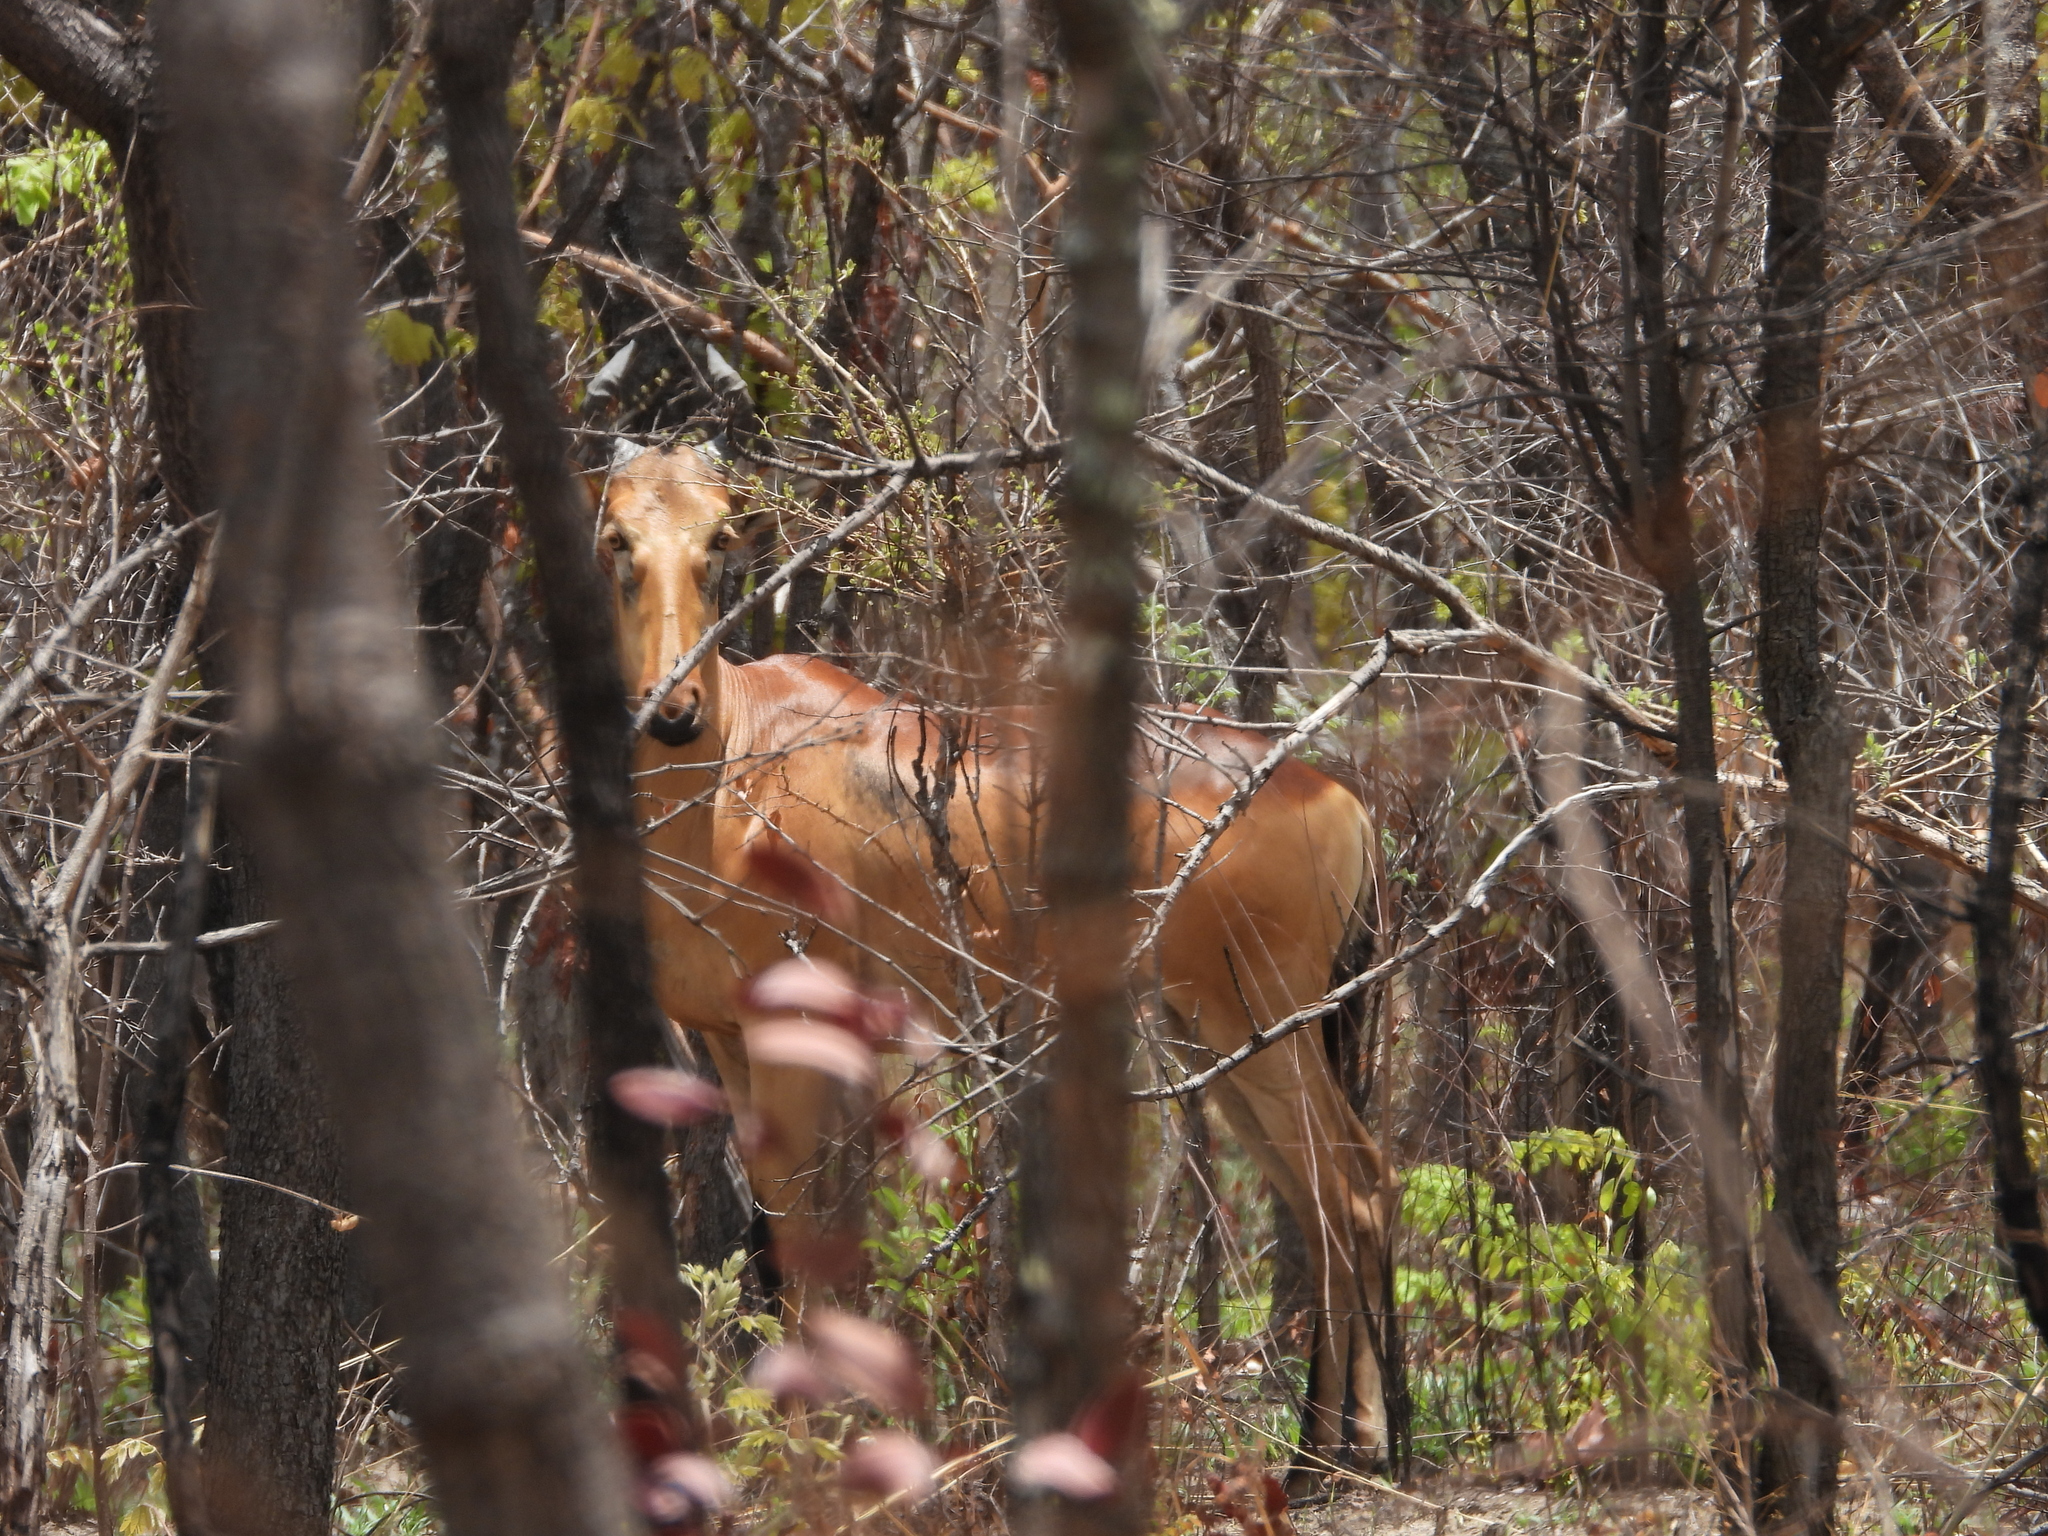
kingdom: Animalia
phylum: Chordata
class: Mammalia
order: Artiodactyla
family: Bovidae
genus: Alcelaphus
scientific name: Alcelaphus buselaphus
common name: Hartebeest
